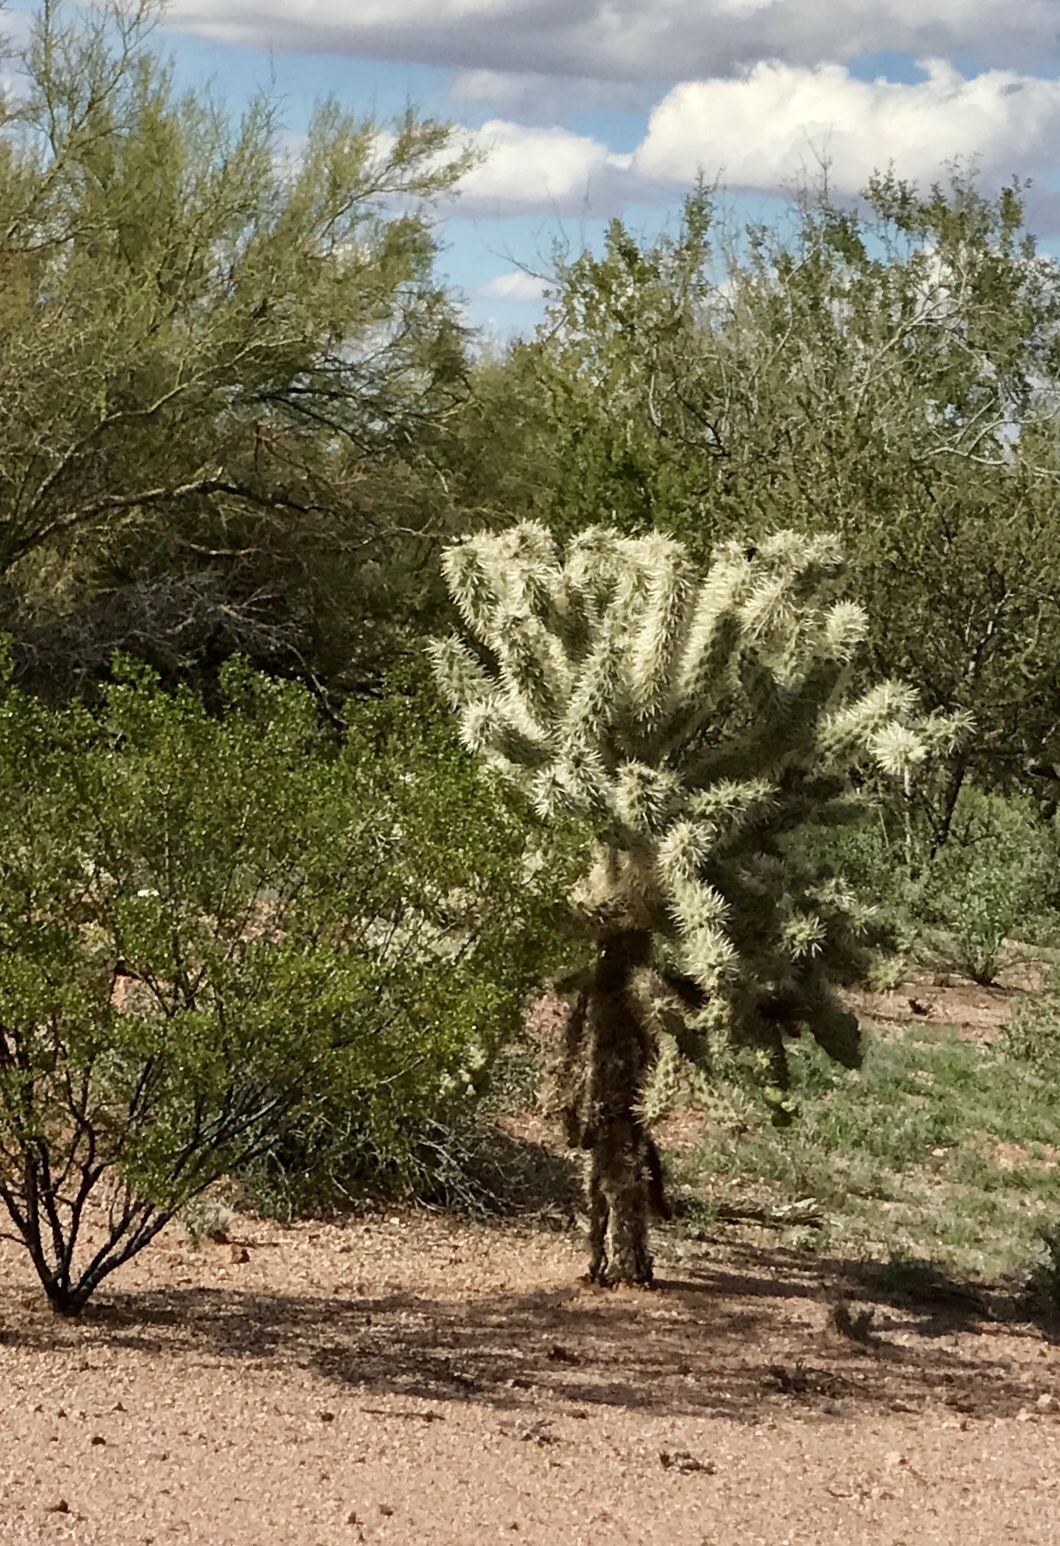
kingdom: Plantae
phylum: Tracheophyta
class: Magnoliopsida
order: Caryophyllales
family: Cactaceae
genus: Cylindropuntia
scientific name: Cylindropuntia fulgida
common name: Jumping cholla
